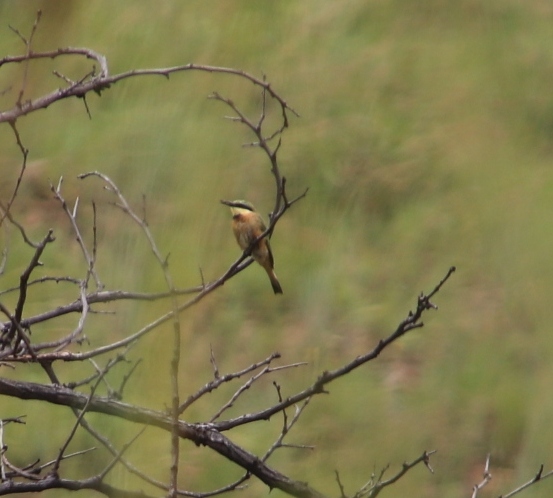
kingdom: Animalia
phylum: Chordata
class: Aves
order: Coraciiformes
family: Meropidae
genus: Merops
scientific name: Merops pusillus
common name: Little bee-eater
